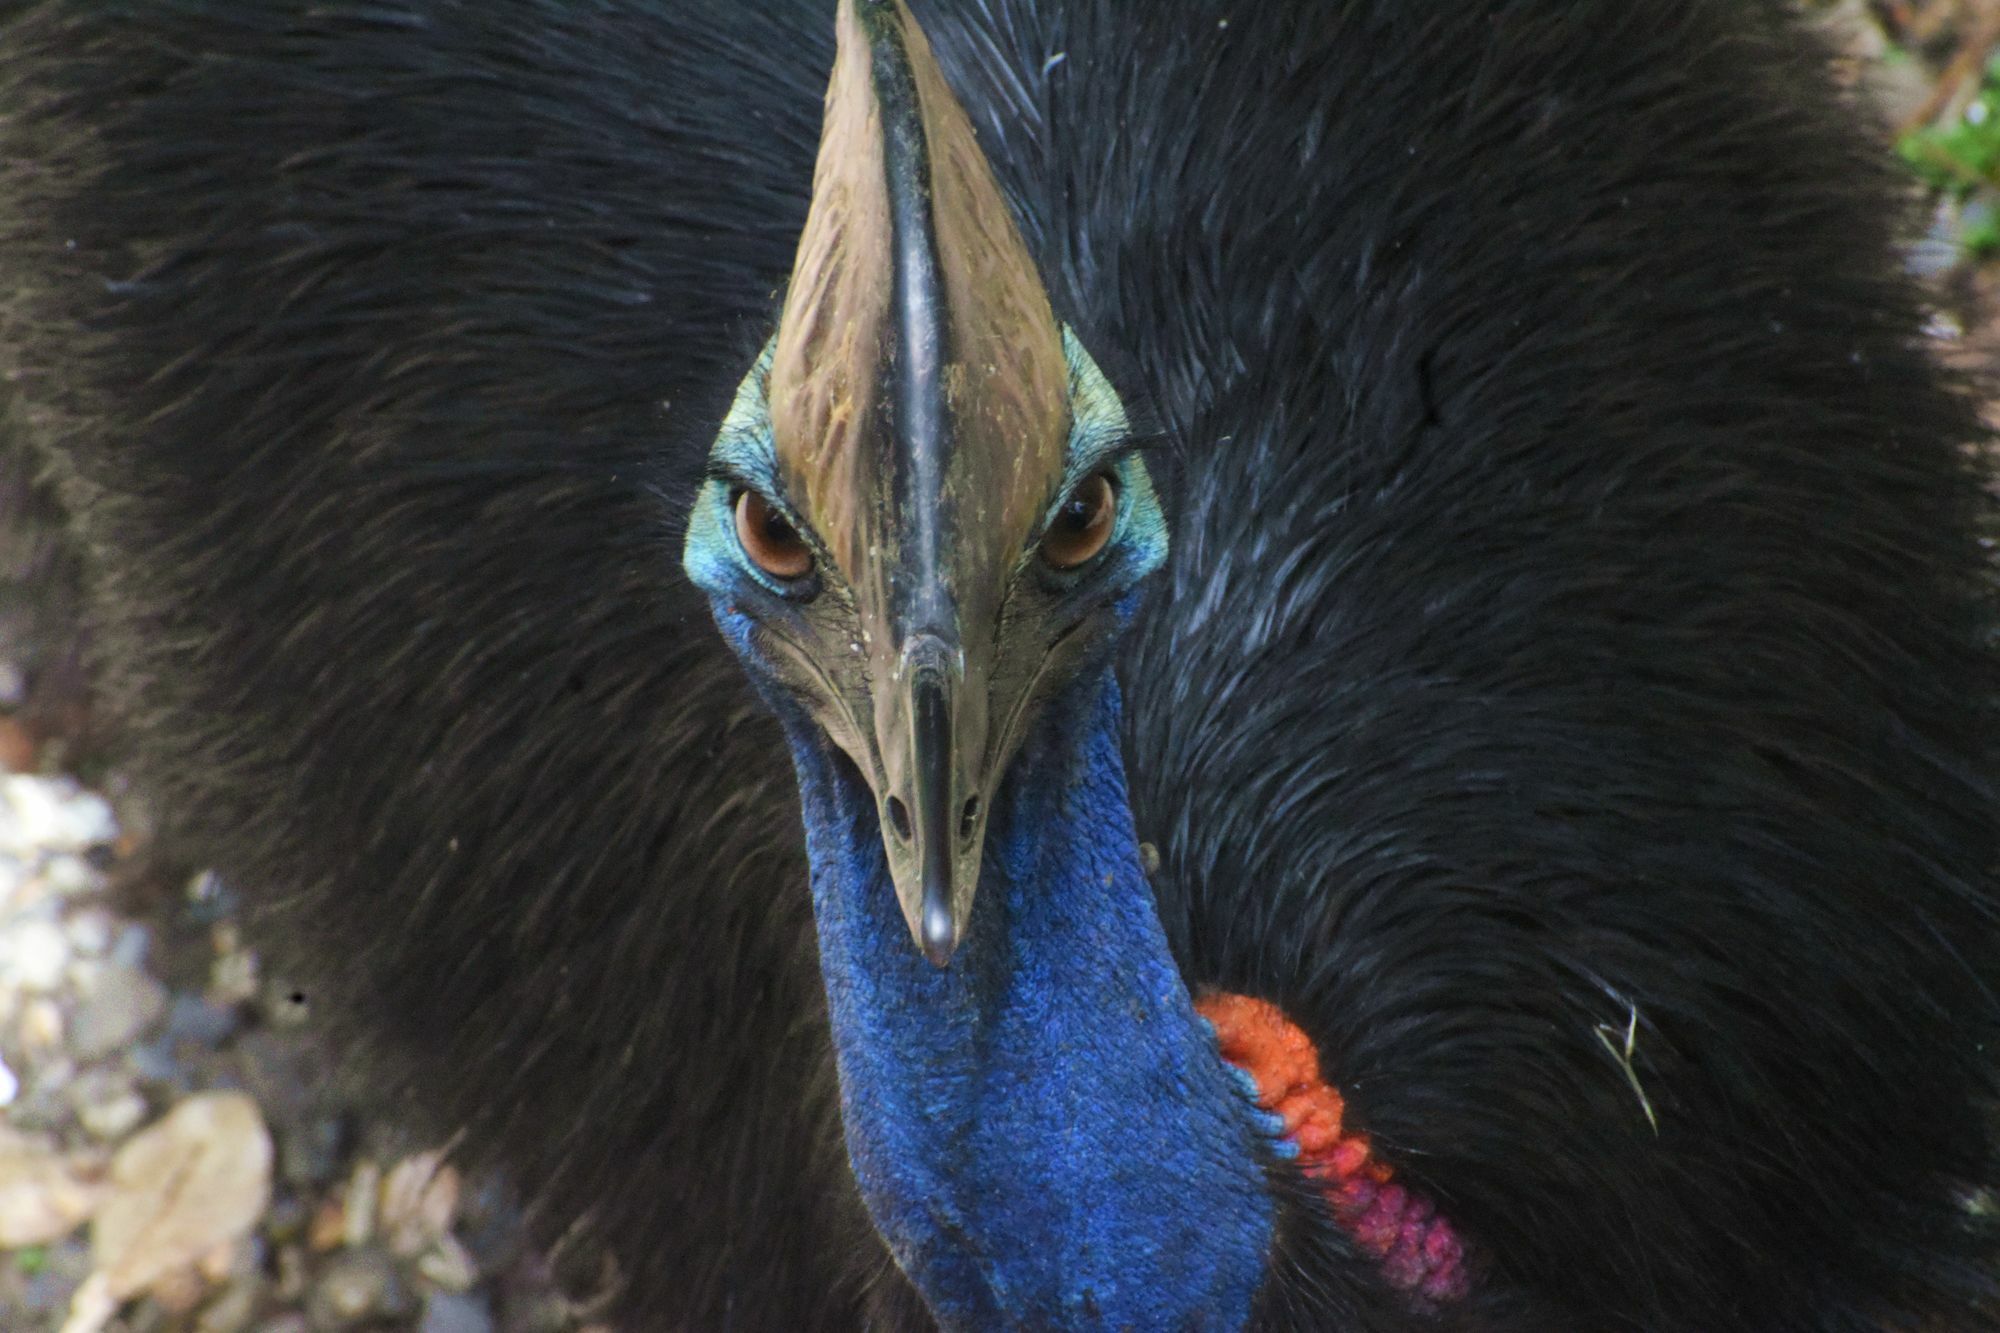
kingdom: Animalia
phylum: Chordata
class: Aves
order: Casuariiformes
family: Casuariidae
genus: Casuarius
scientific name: Casuarius casuarius
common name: Southern cassowary
